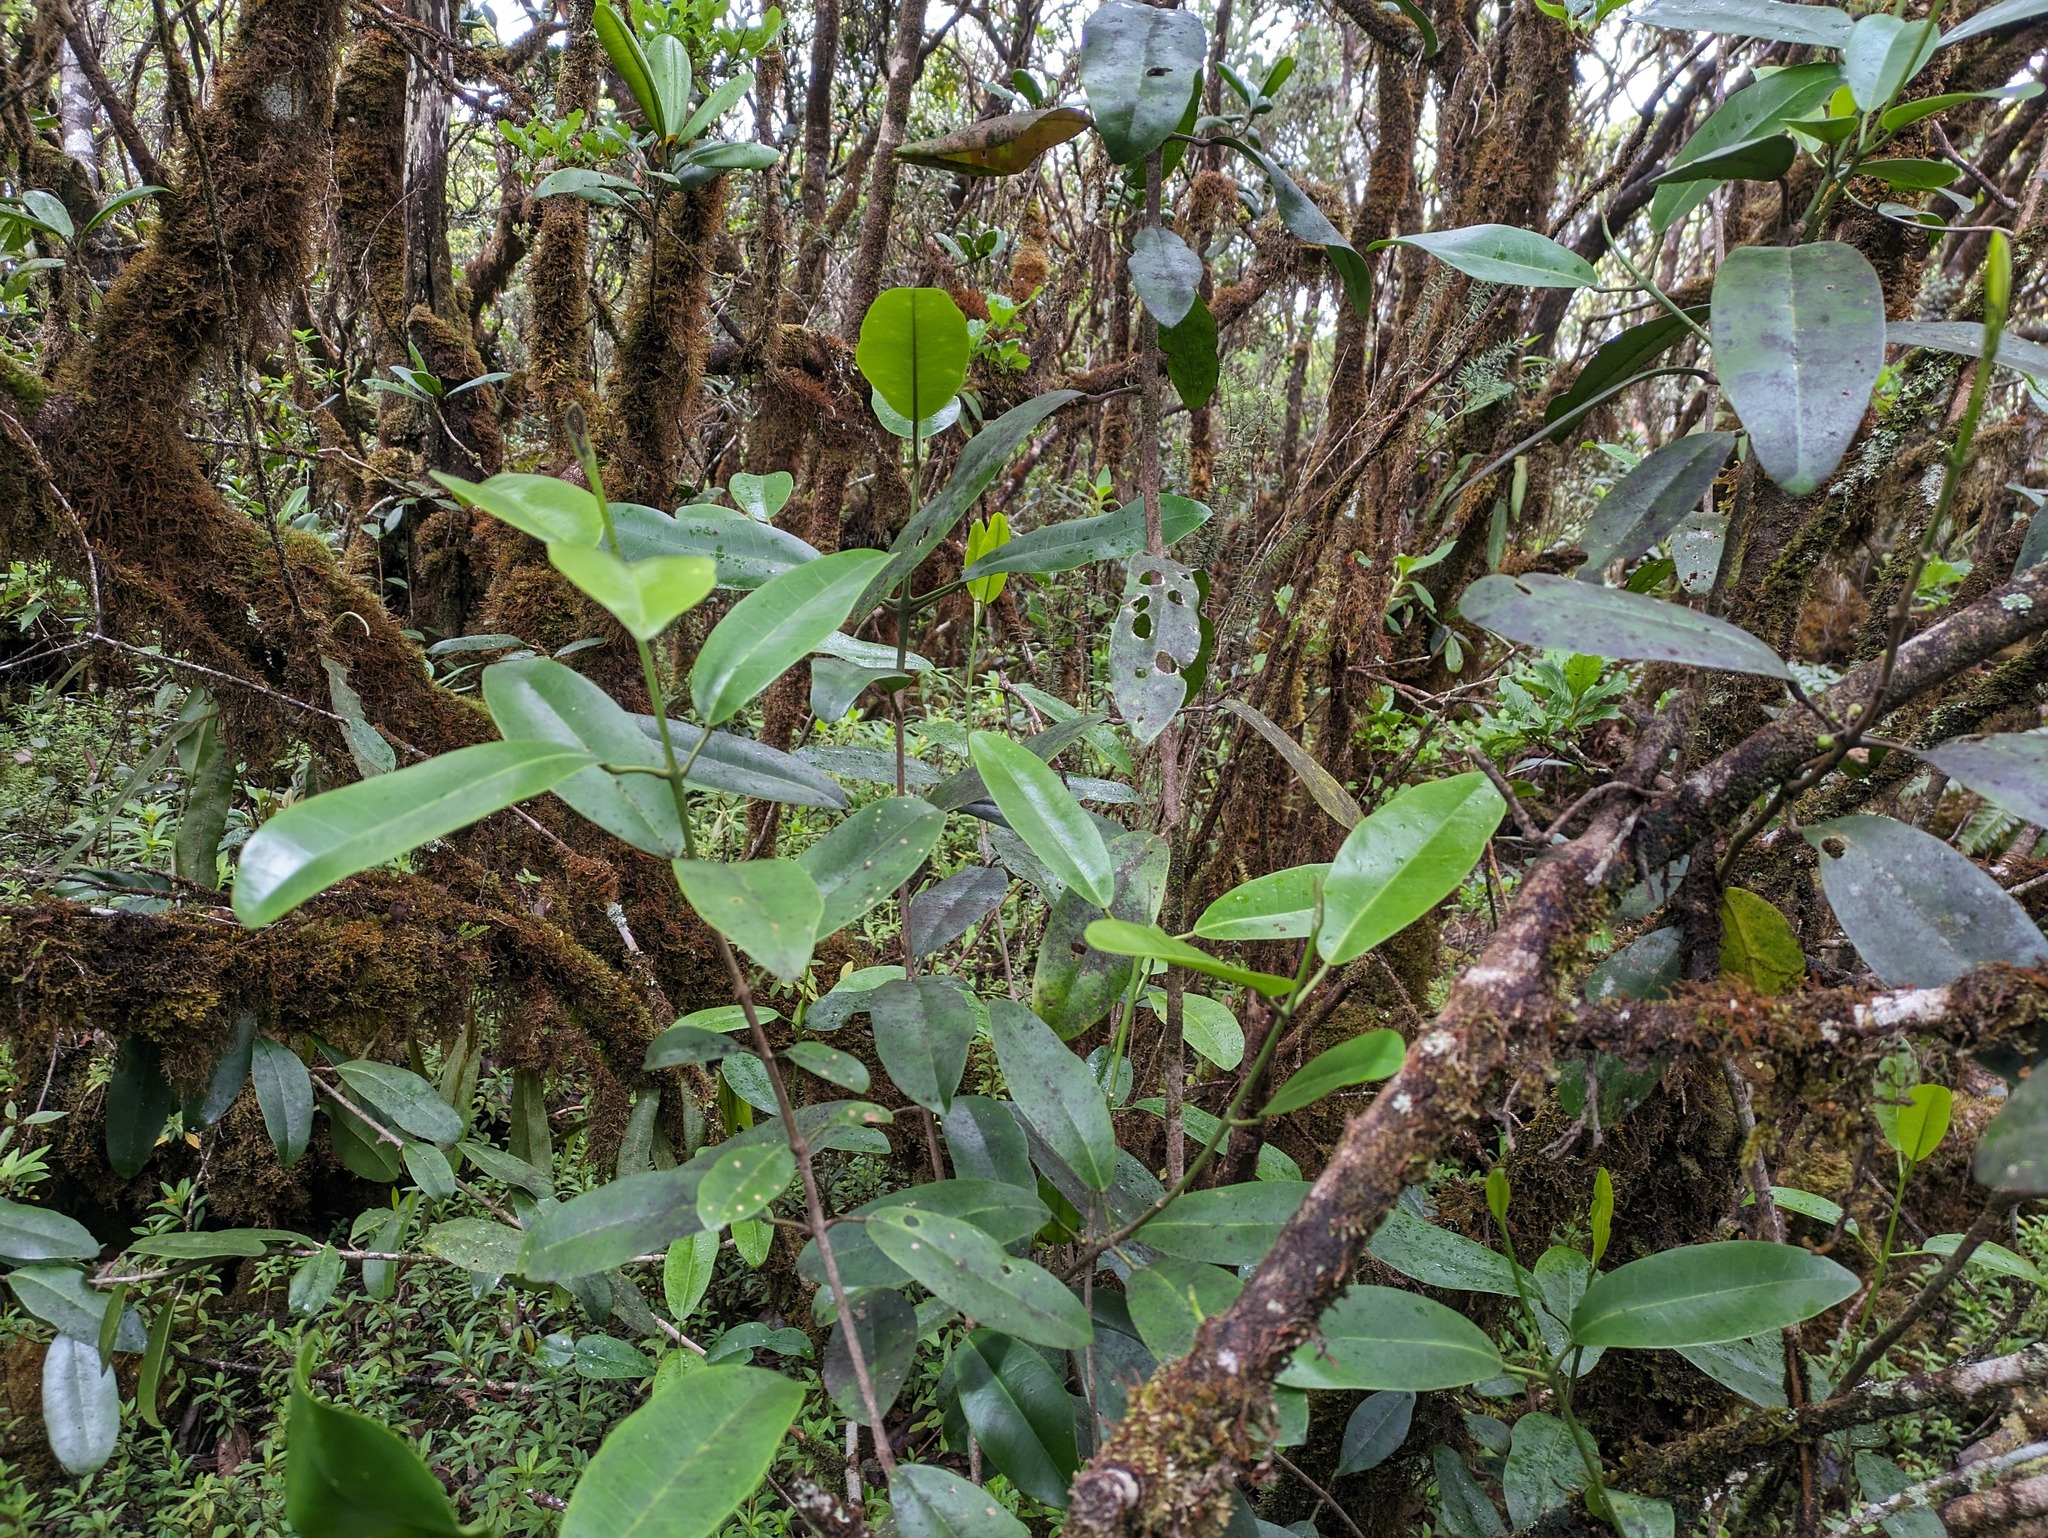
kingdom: Plantae
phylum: Tracheophyta
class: Magnoliopsida
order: Sapindales
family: Rutaceae
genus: Melicope
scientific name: Melicope anisata
